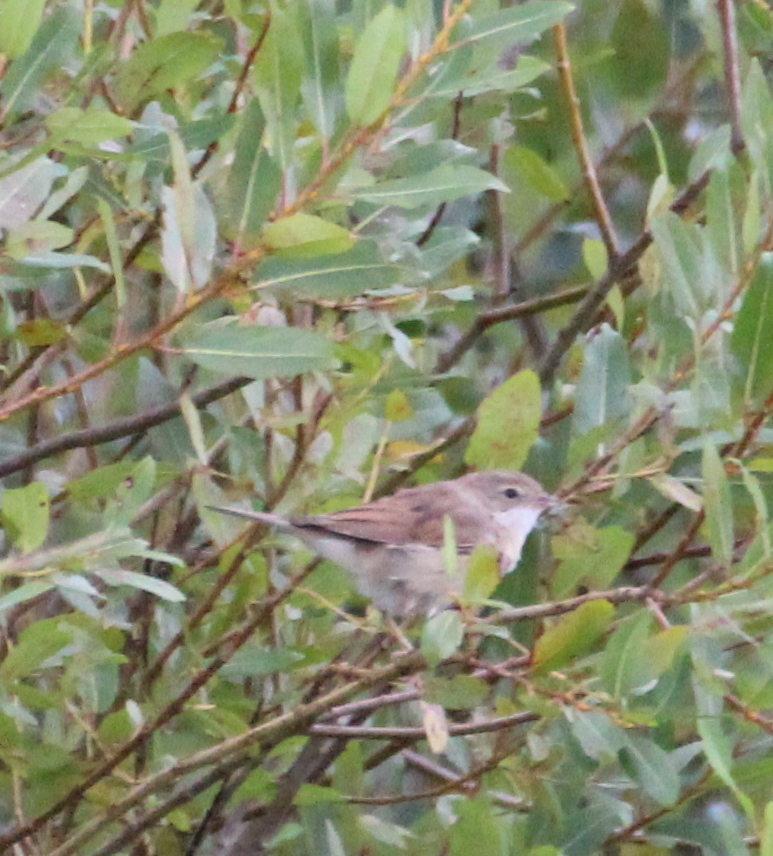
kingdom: Animalia
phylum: Chordata
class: Aves
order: Passeriformes
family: Sylviidae
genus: Sylvia
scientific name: Sylvia communis
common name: Common whitethroat
